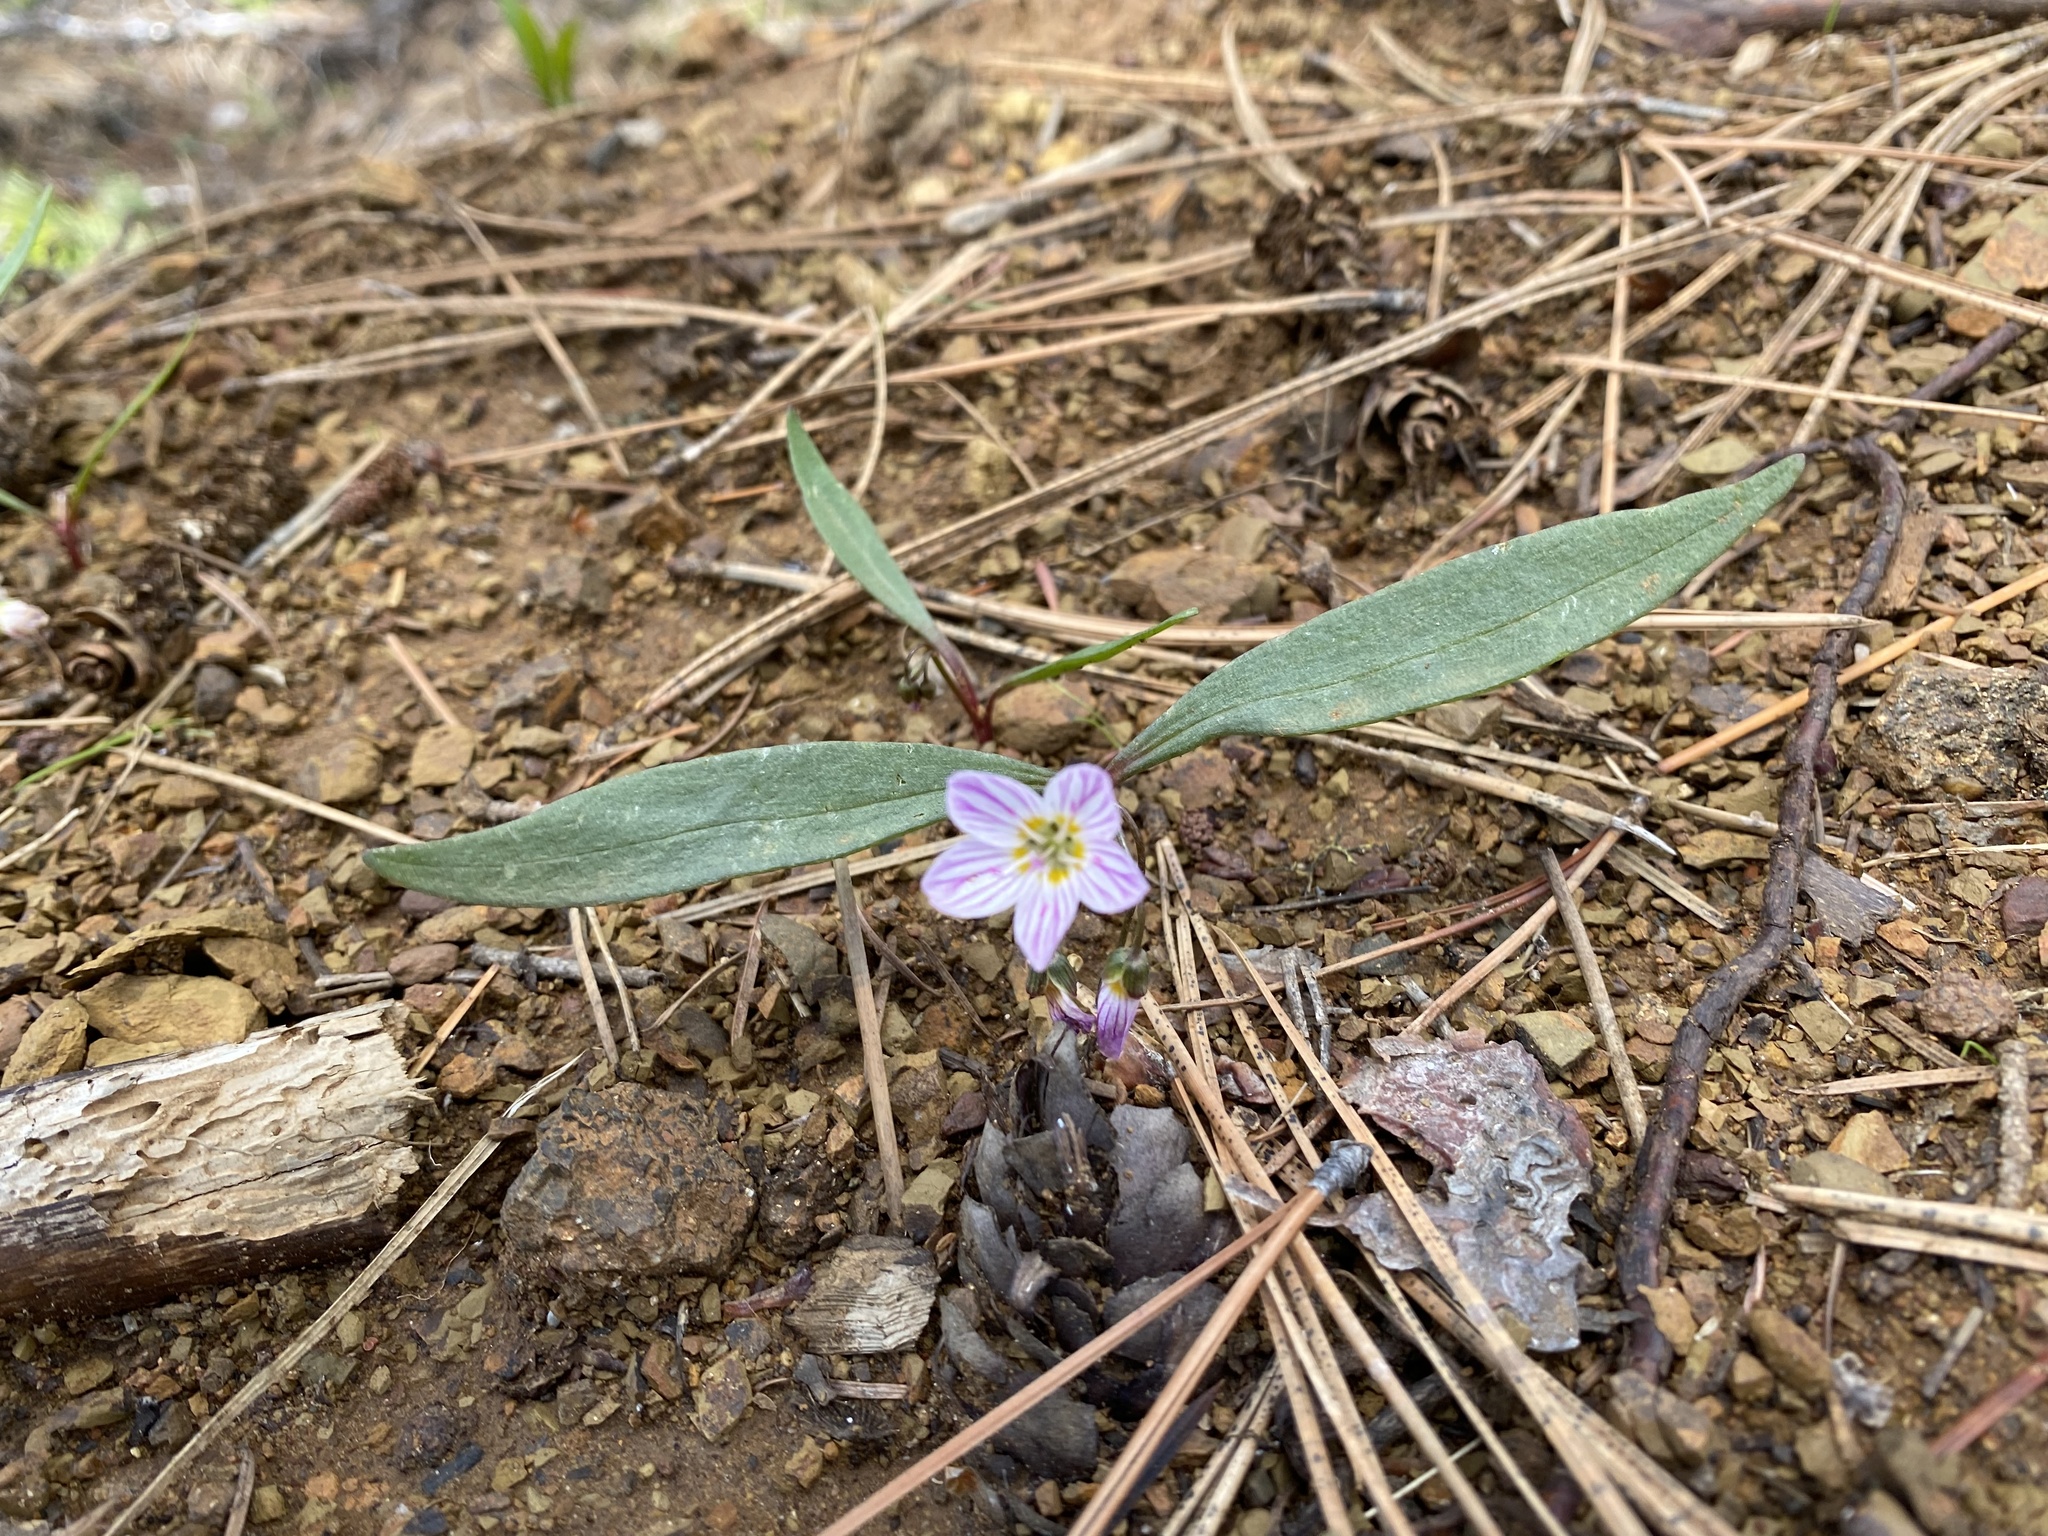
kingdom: Plantae
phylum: Tracheophyta
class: Magnoliopsida
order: Caryophyllales
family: Montiaceae
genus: Claytonia
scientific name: Claytonia lanceolata
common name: Western spring-beauty
